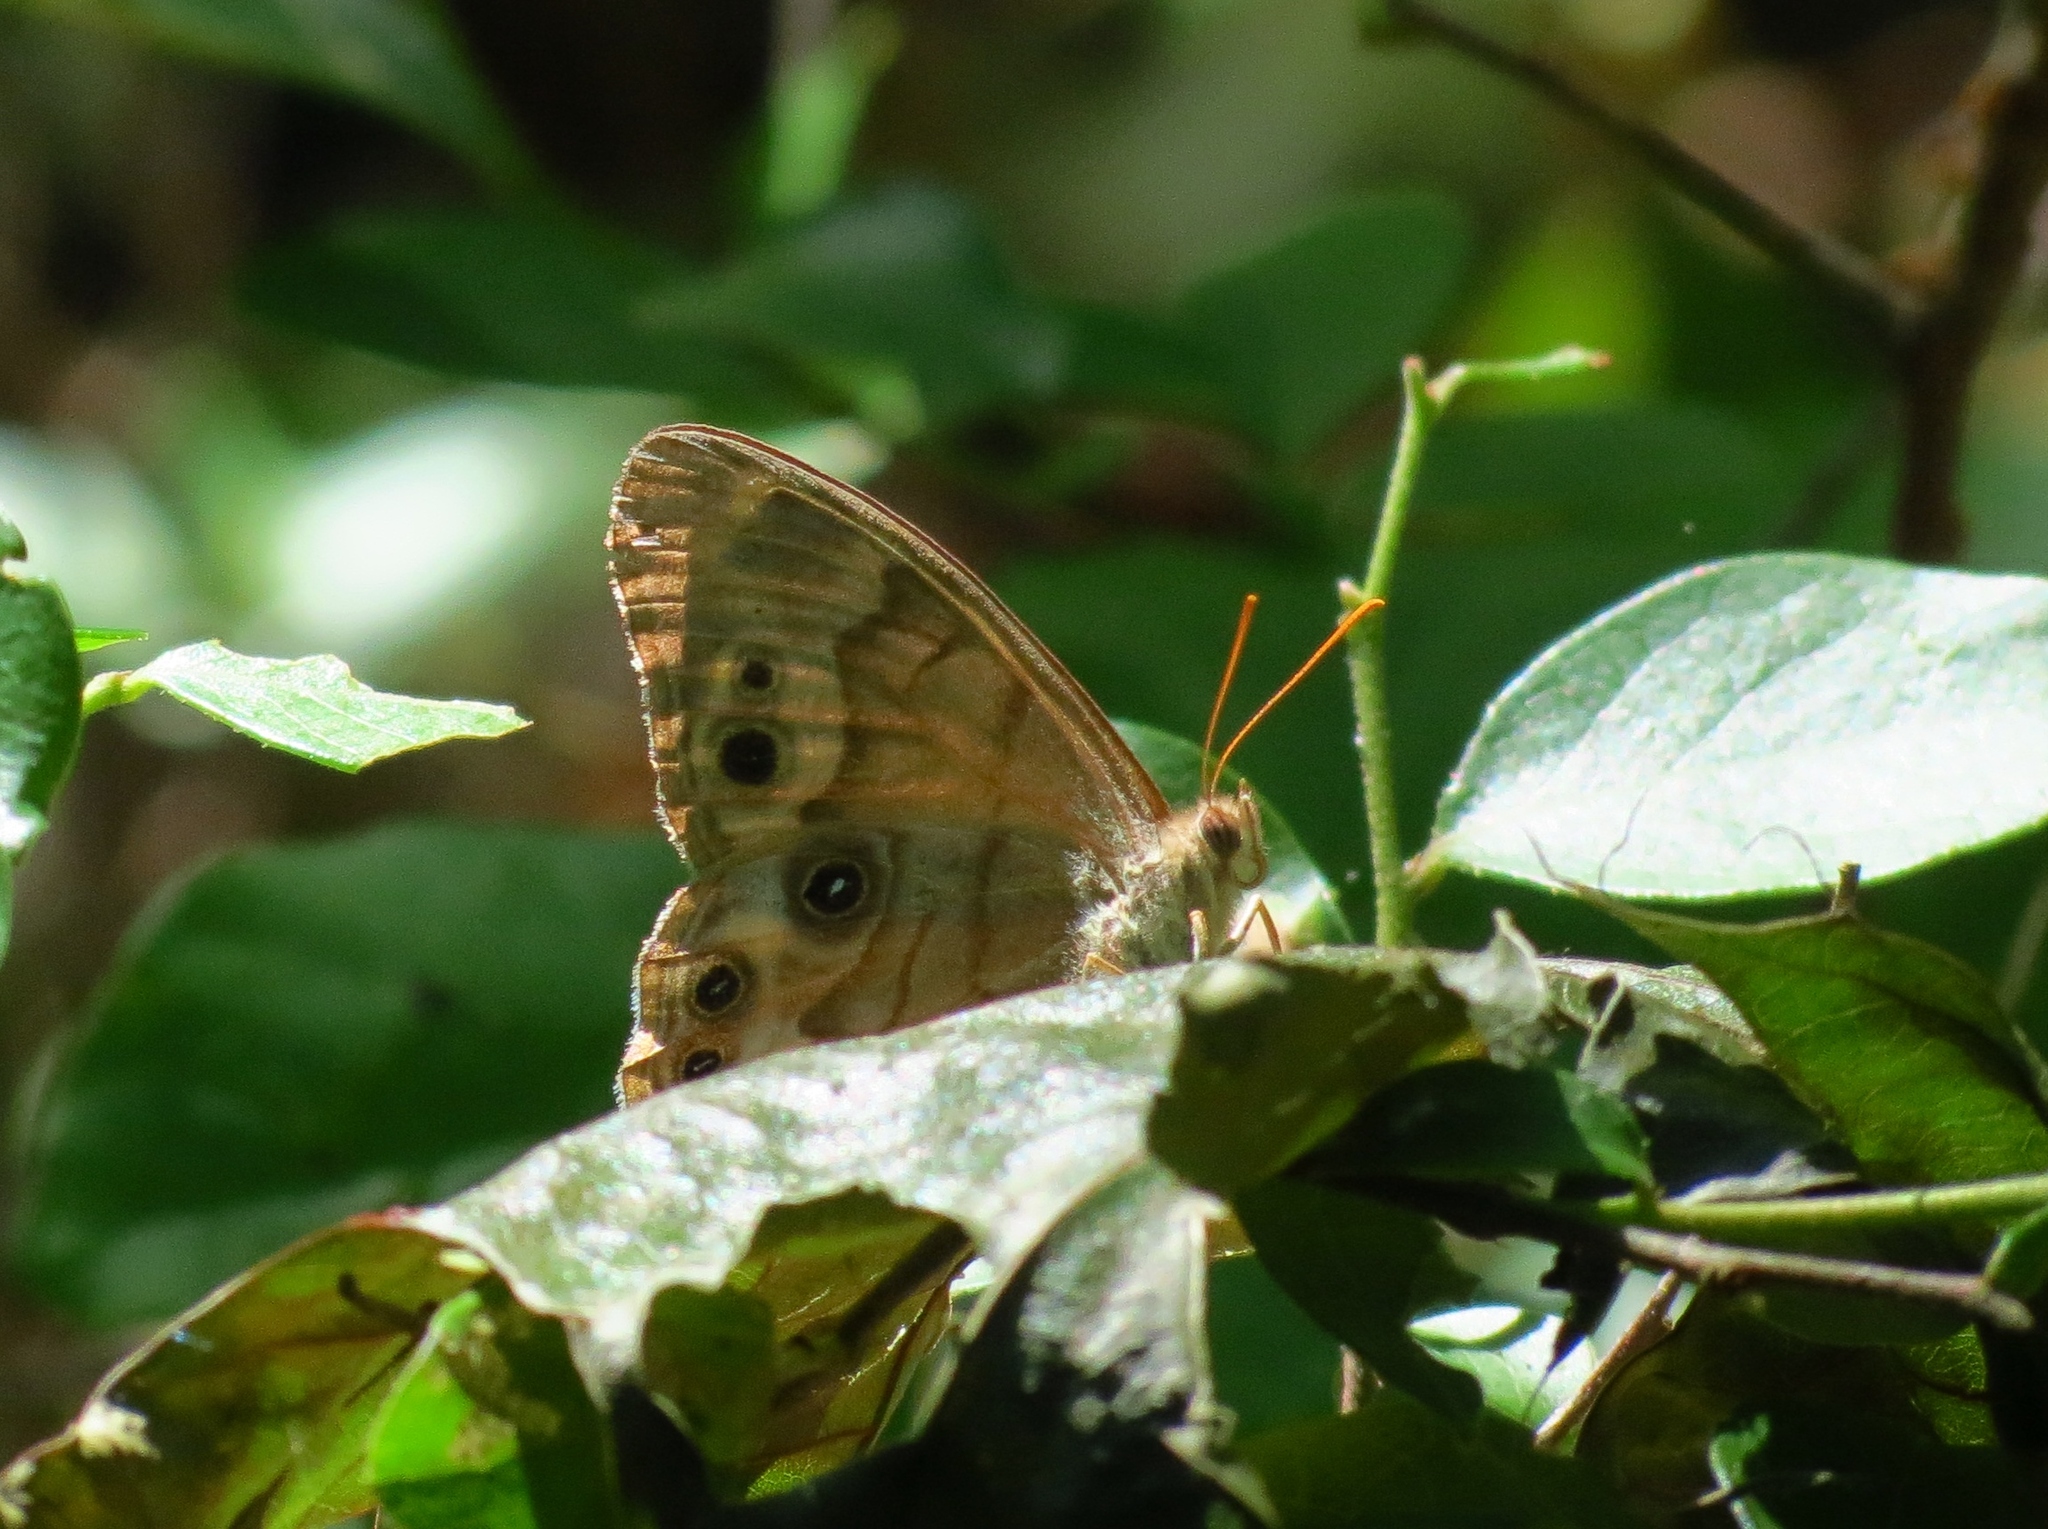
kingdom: Animalia
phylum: Arthropoda
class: Insecta
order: Lepidoptera
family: Nymphalidae
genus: Enodia
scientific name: Enodia portlandia
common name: Southern pearly-eye
